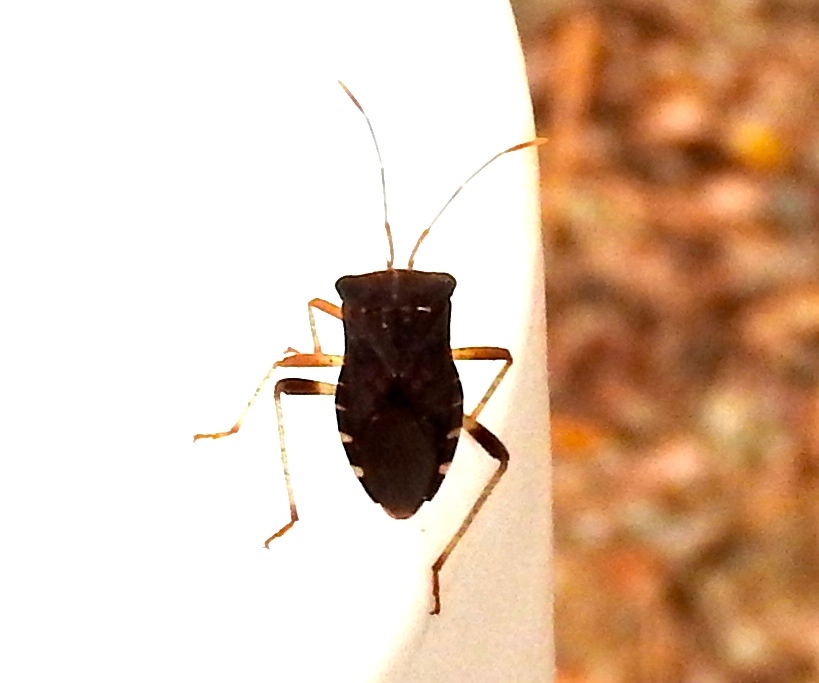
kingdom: Animalia
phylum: Arthropoda
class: Insecta
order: Hemiptera
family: Coreidae
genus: Anasa
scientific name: Anasa scorbutica
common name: Squash bug
